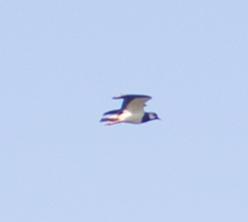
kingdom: Animalia
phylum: Chordata
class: Aves
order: Charadriiformes
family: Charadriidae
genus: Vanellus
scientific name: Vanellus vanellus
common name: Northern lapwing
